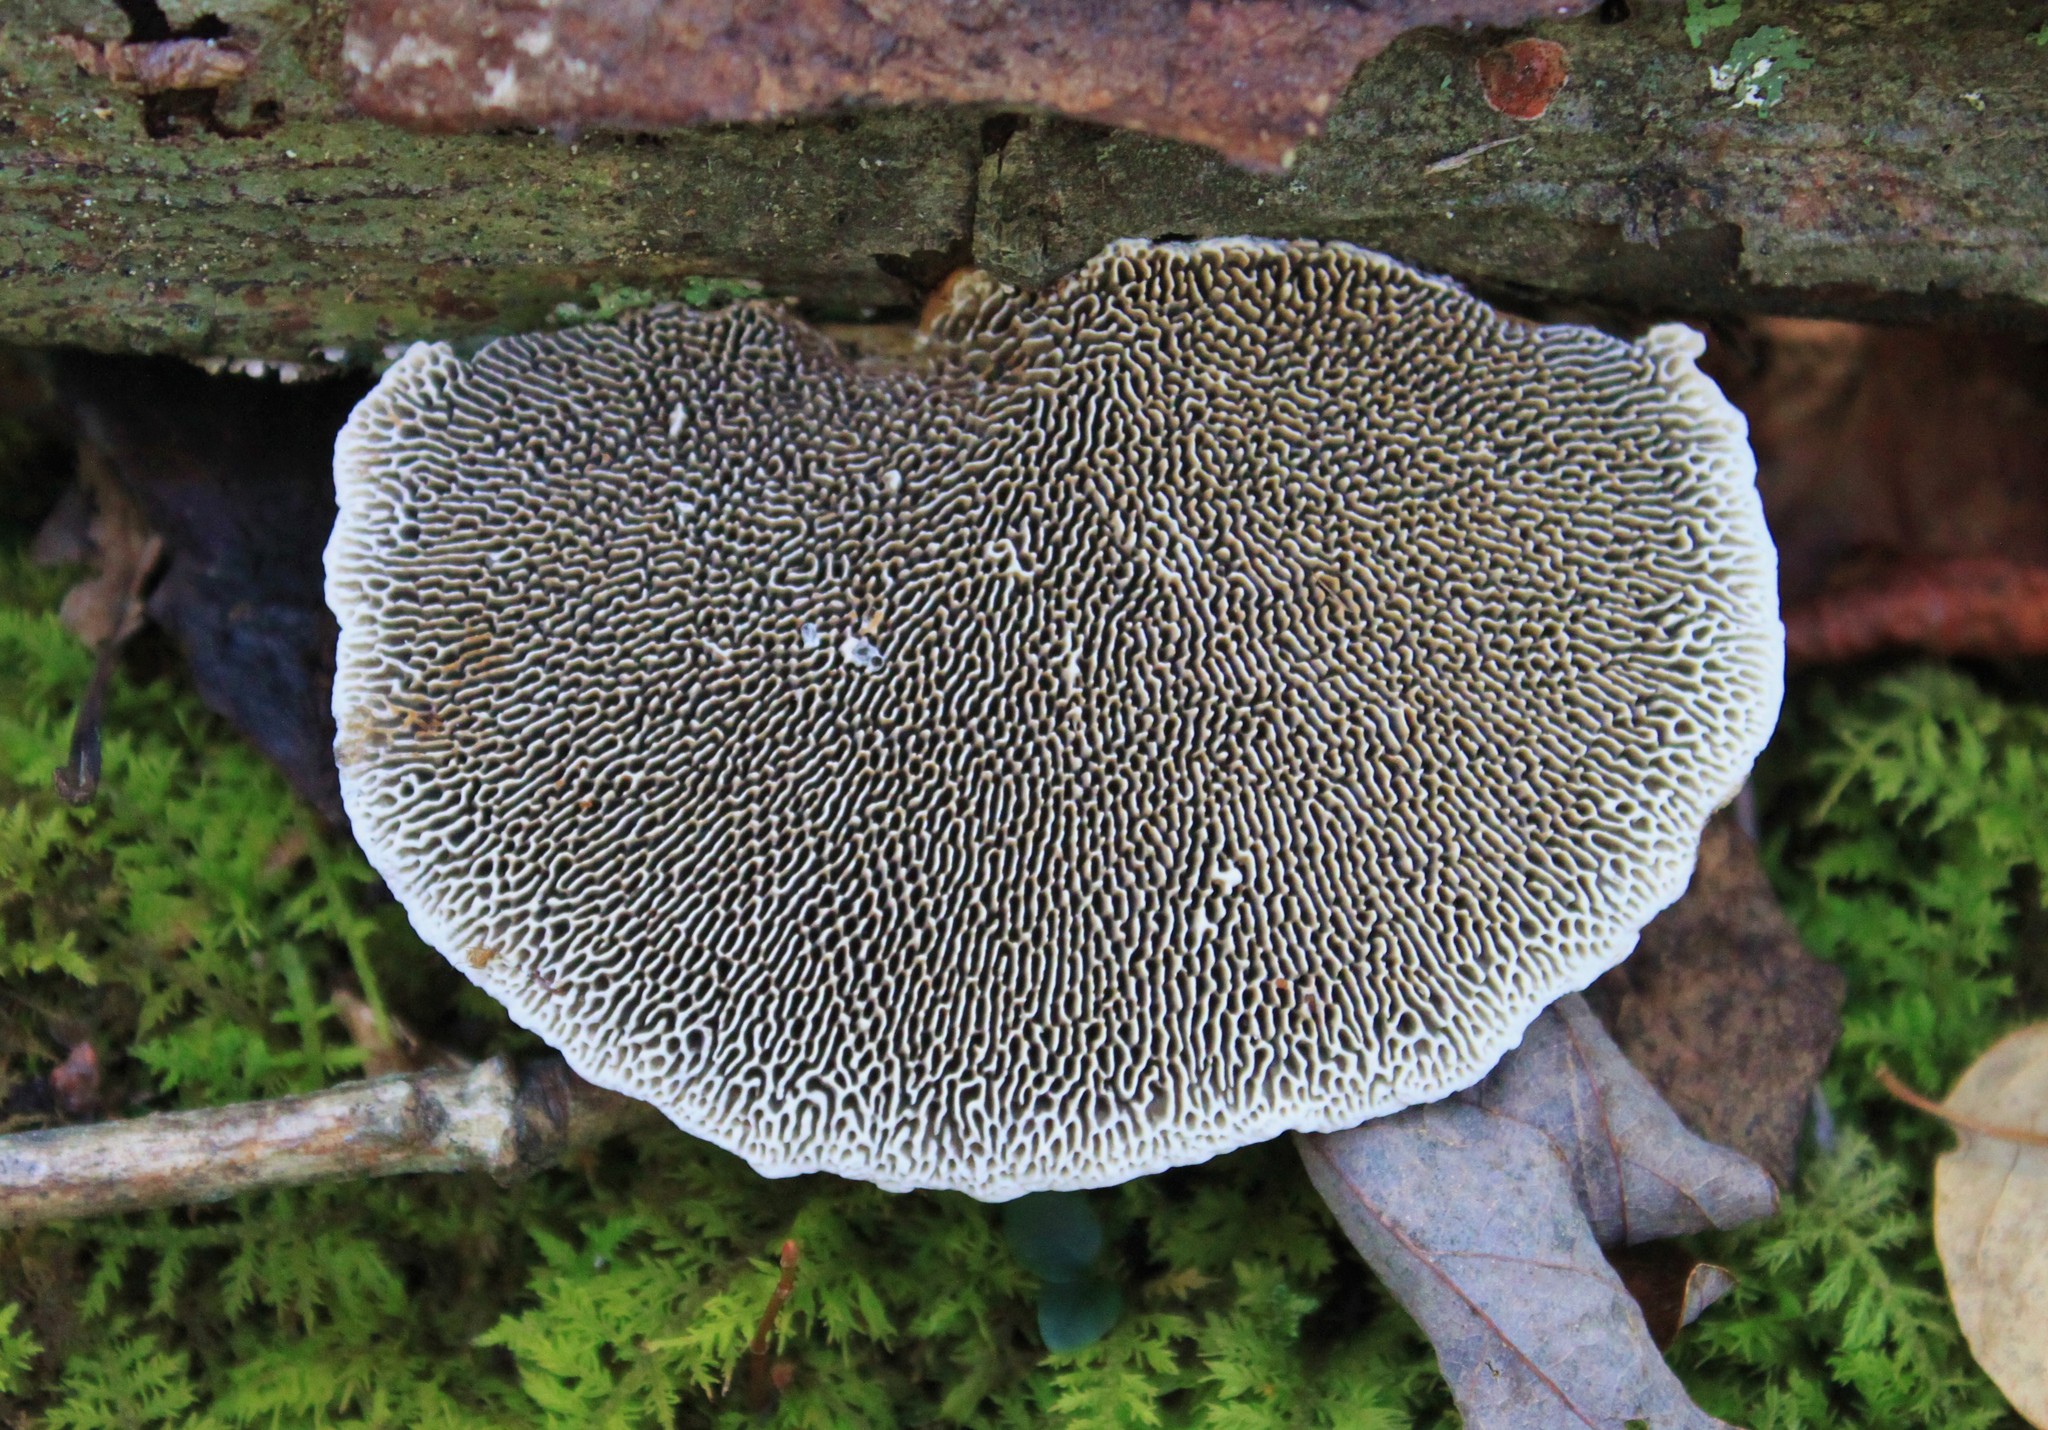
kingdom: Fungi
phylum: Basidiomycota
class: Agaricomycetes
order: Polyporales
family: Polyporaceae
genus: Daedaleopsis
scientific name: Daedaleopsis confragosa
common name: Blushing bracket
